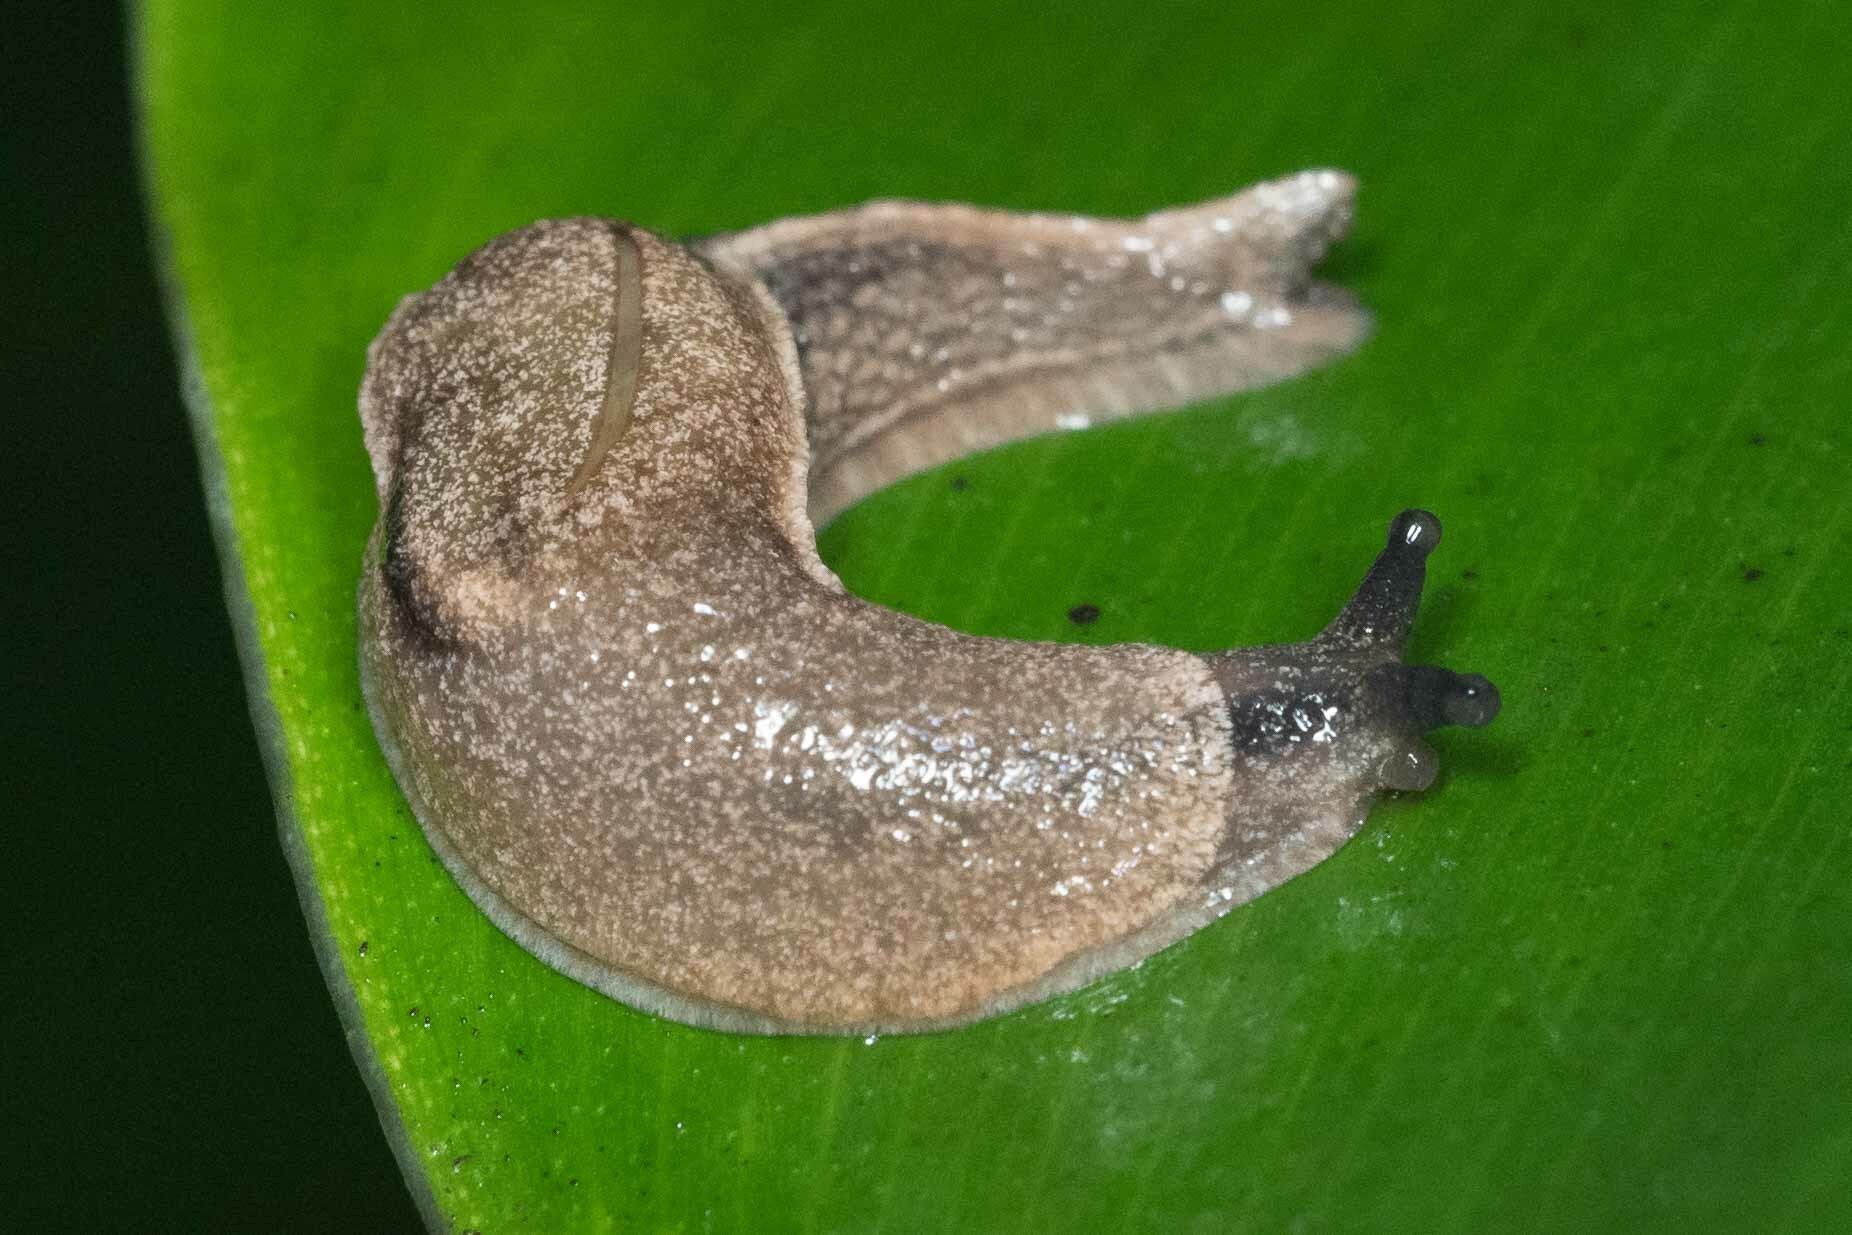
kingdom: Animalia
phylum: Mollusca
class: Gastropoda
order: Stylommatophora
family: Ariophantidae
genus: Parmarion
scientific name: Parmarion martensi
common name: Semi-slug
